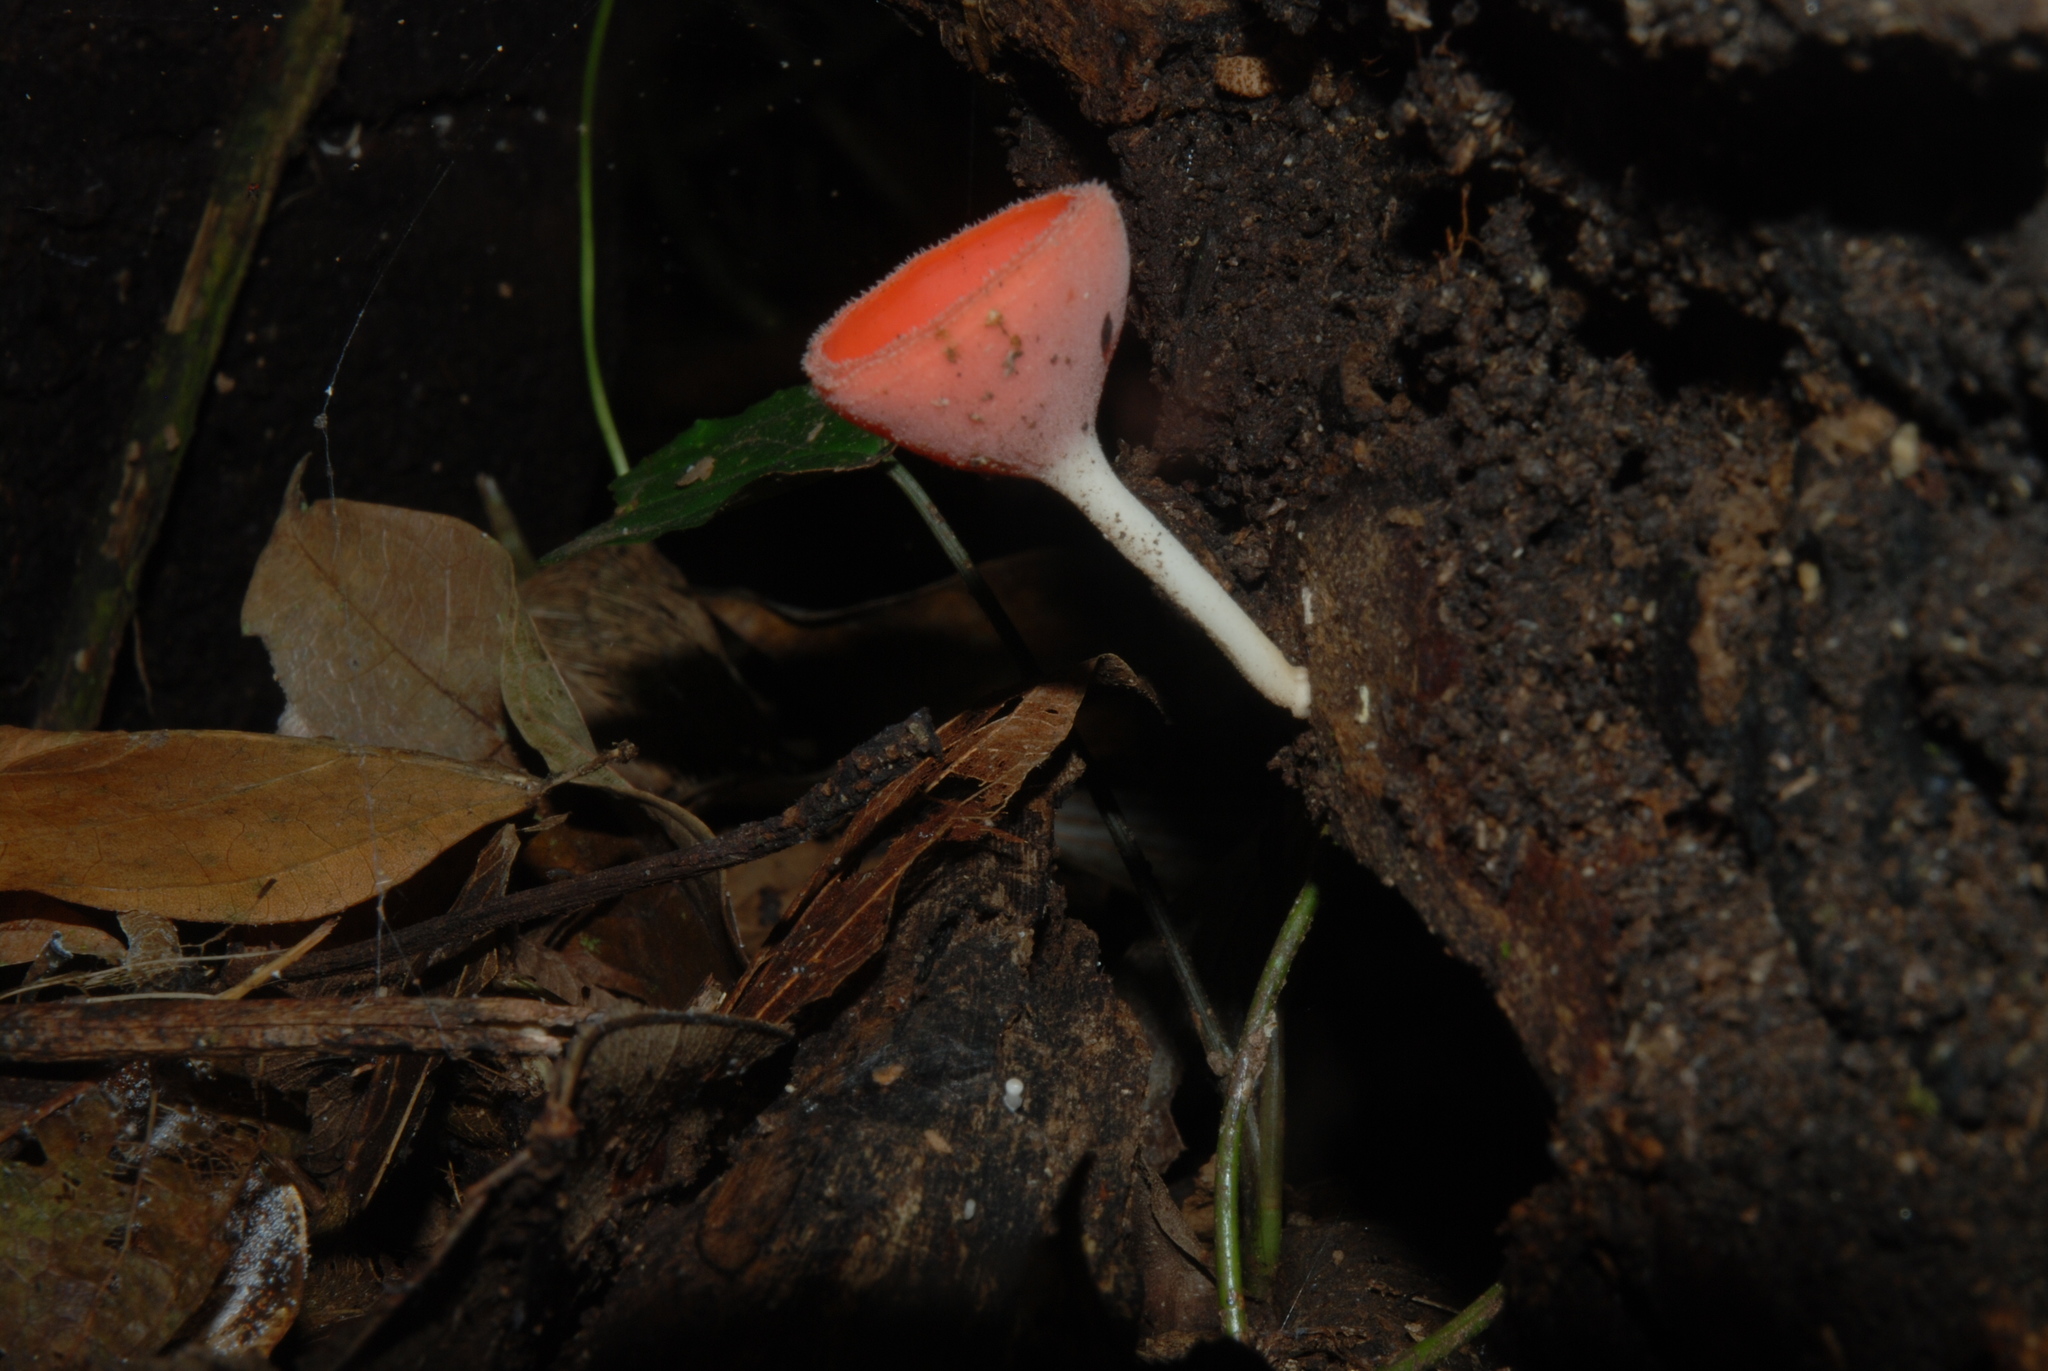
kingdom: Fungi
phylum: Ascomycota
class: Pezizomycetes
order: Pezizales
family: Sarcoscyphaceae
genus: Cookeina
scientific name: Cookeina speciosa
